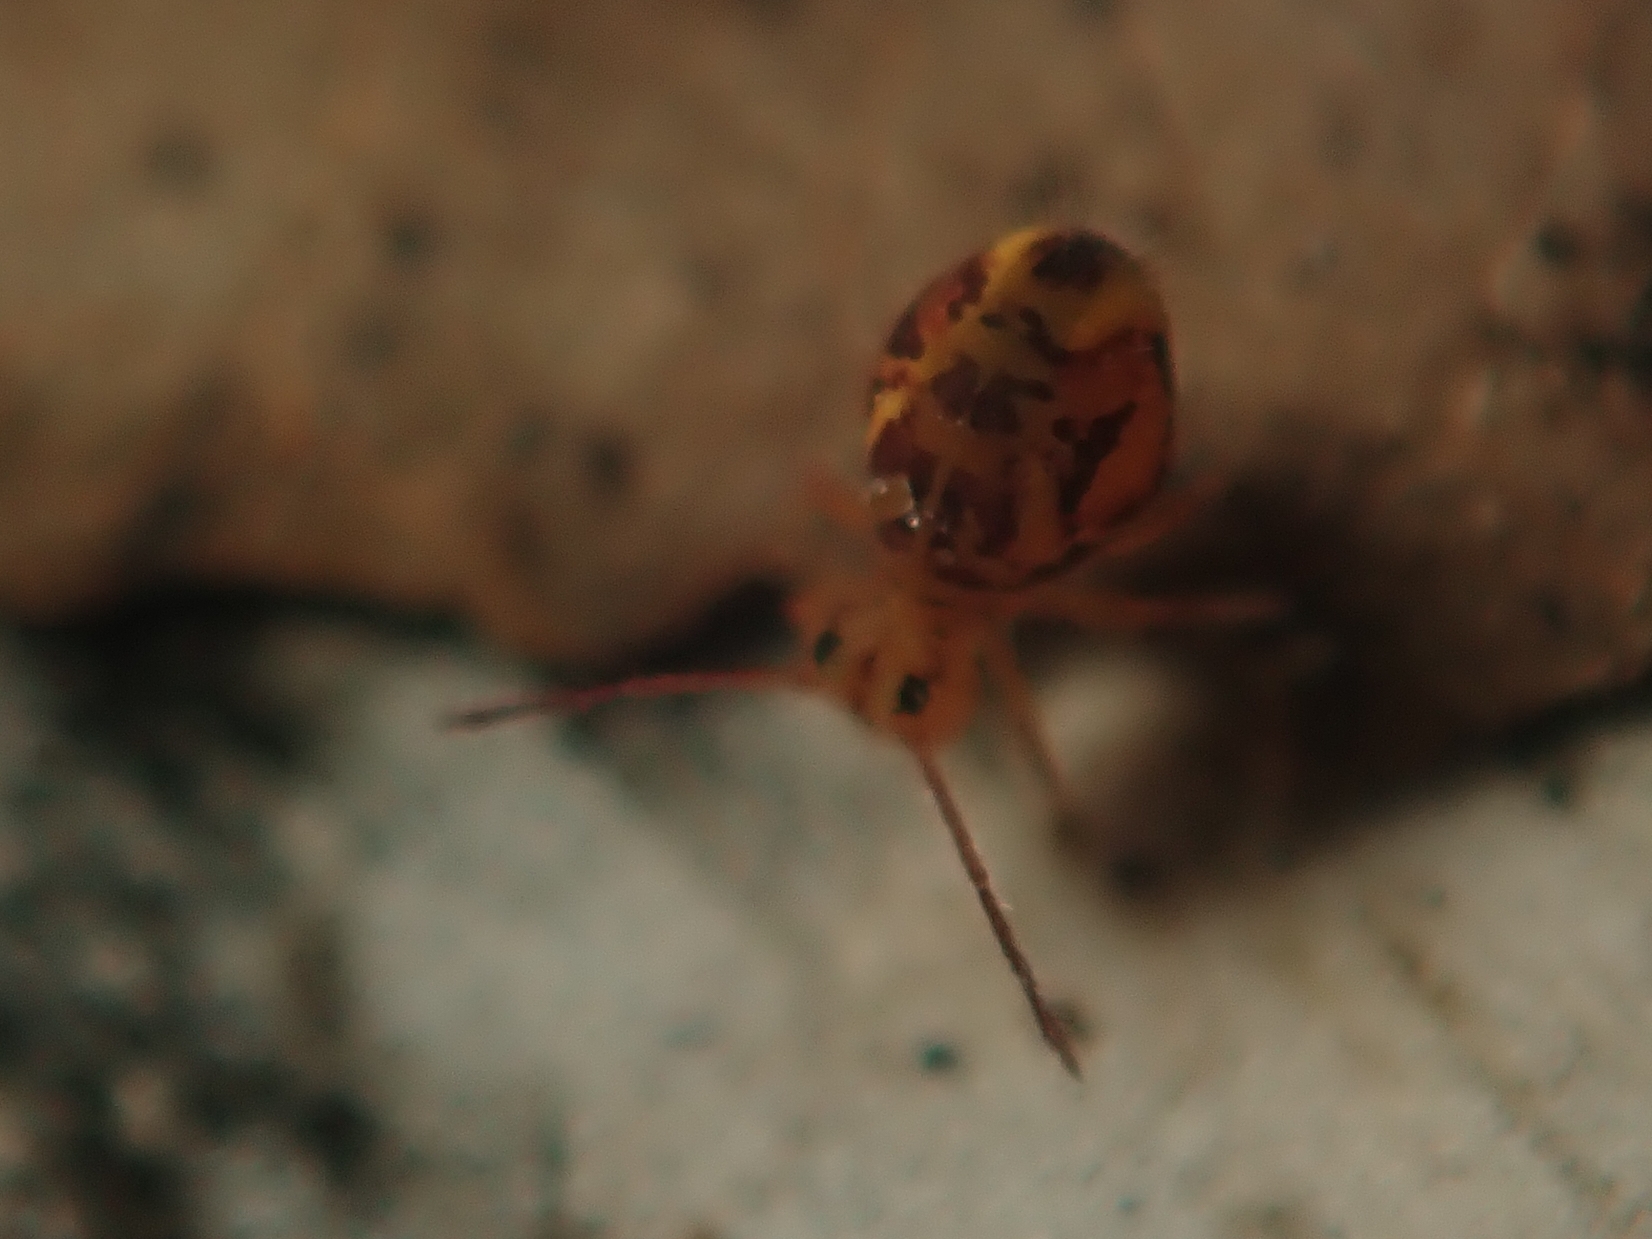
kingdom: Animalia
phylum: Arthropoda
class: Collembola
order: Symphypleona
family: Dicyrtomidae
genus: Dicyrtomina
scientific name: Dicyrtomina ornata
